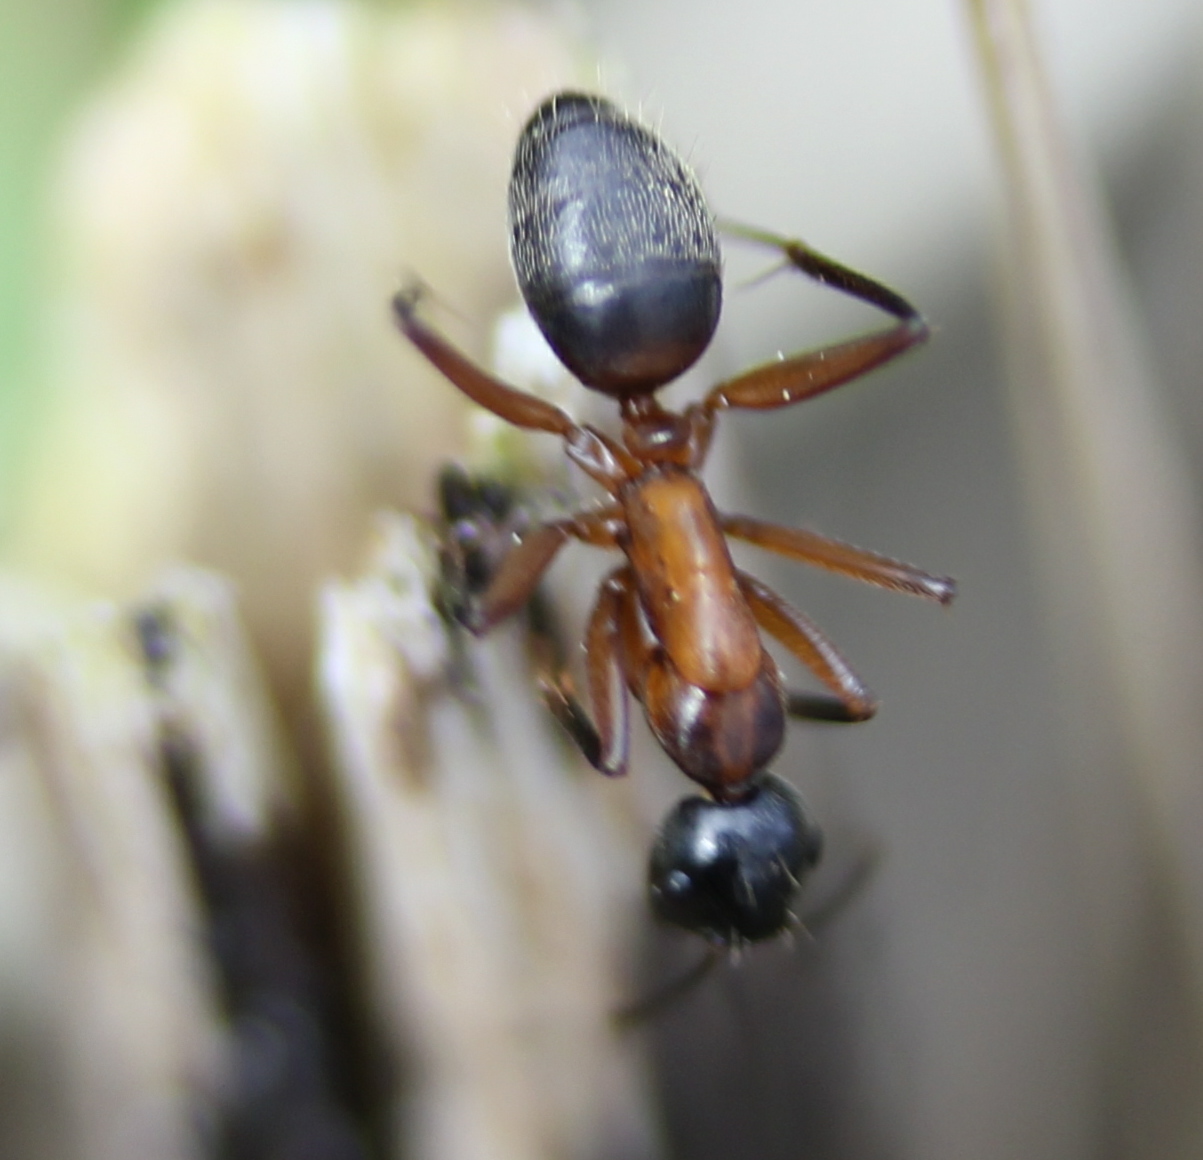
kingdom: Animalia
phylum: Arthropoda
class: Insecta
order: Hymenoptera
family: Formicidae
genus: Camponotus
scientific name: Camponotus chromaiodes
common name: Red carpenter ant
